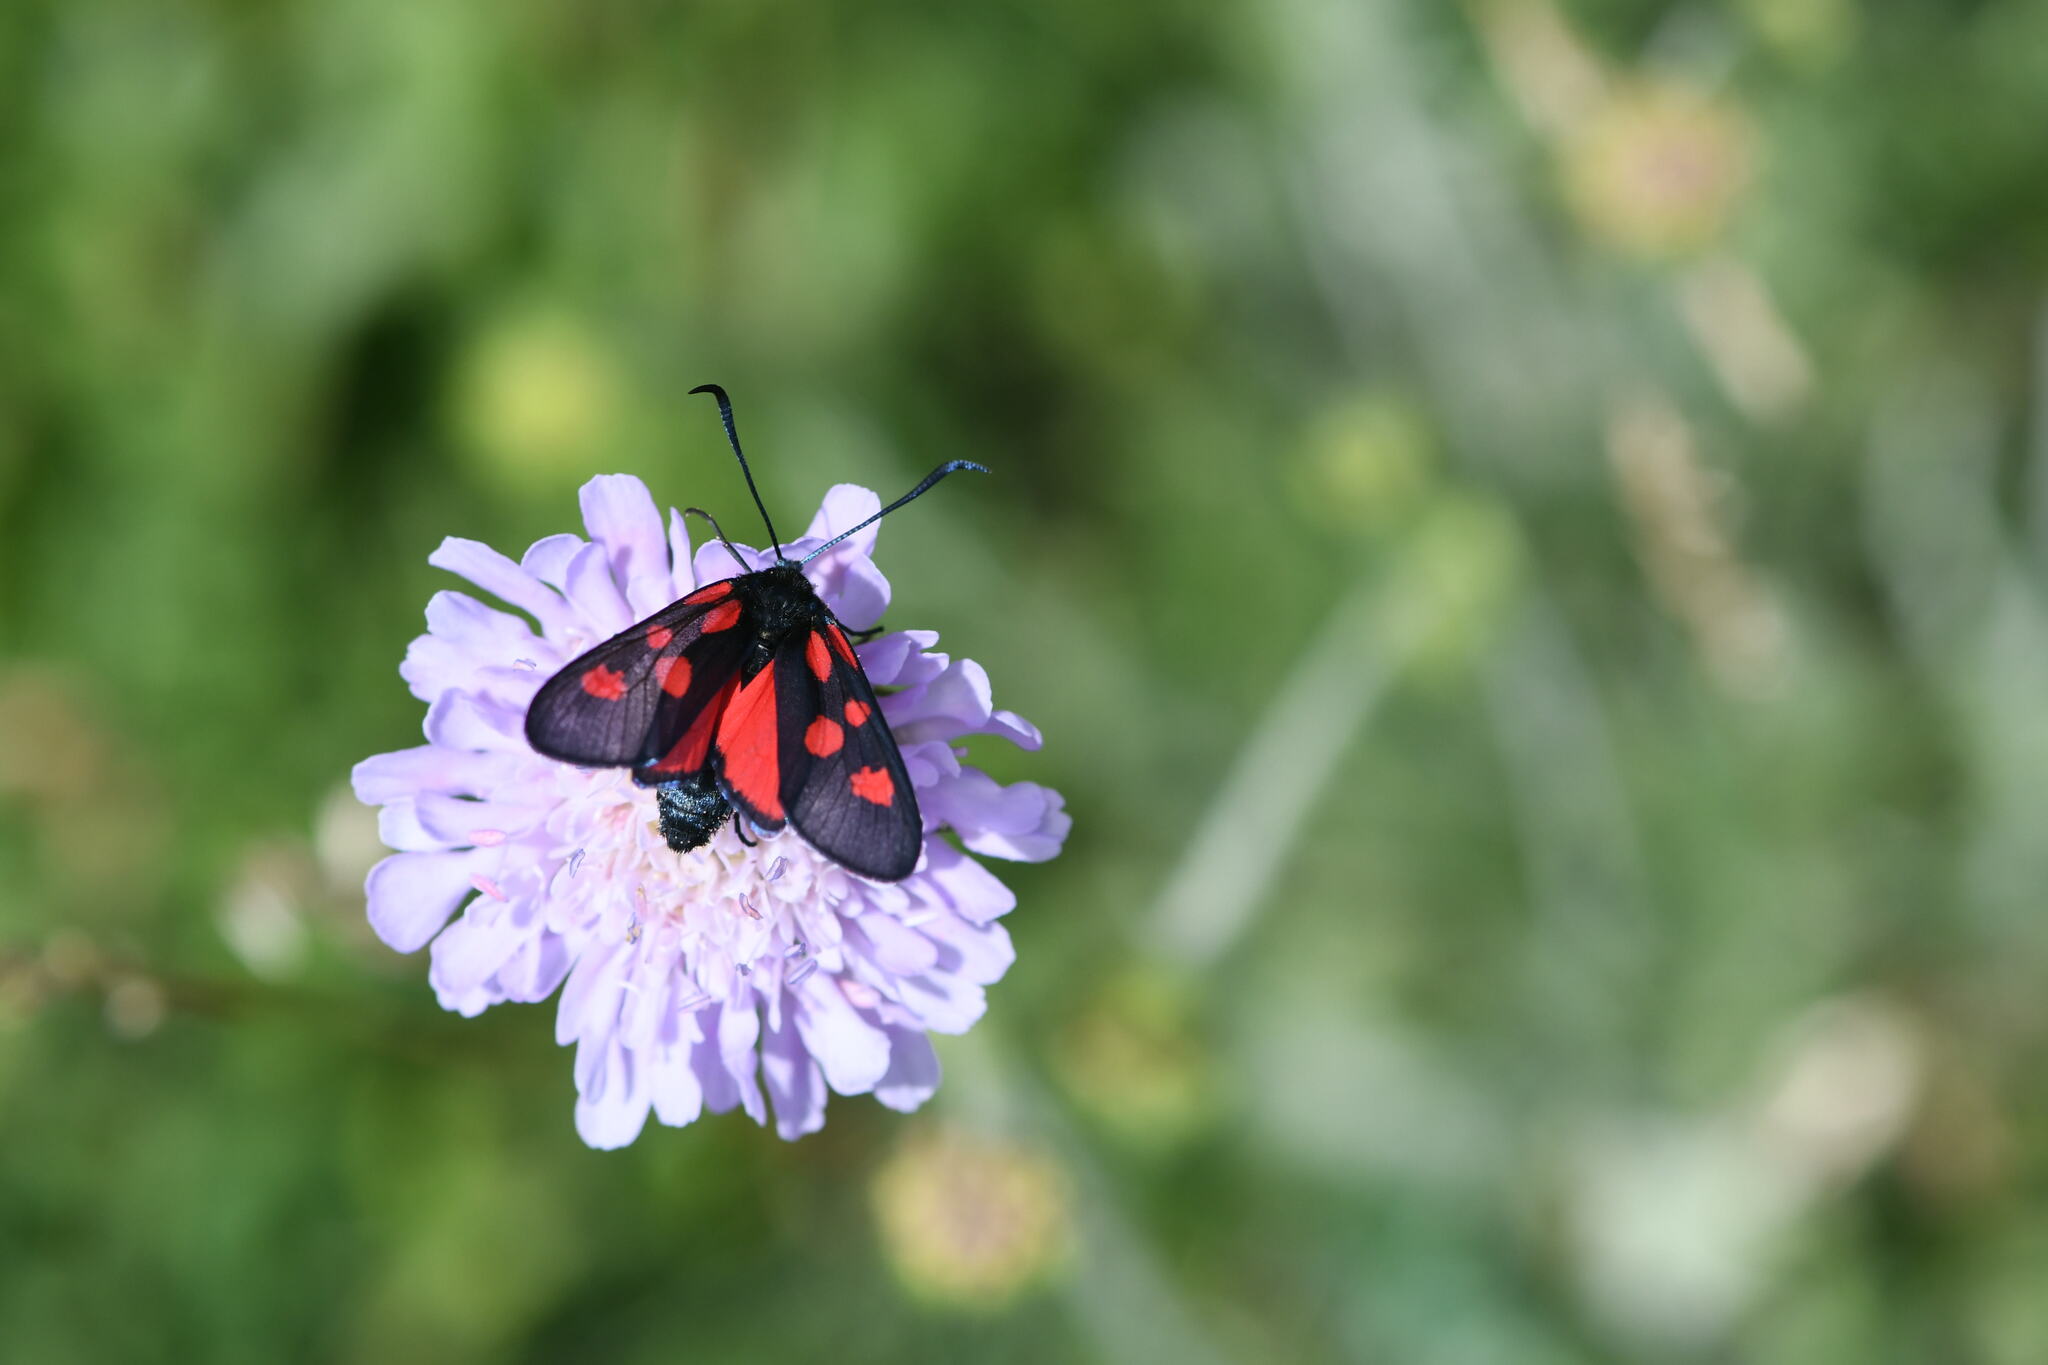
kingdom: Animalia
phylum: Arthropoda
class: Insecta
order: Lepidoptera
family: Zygaenidae
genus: Zygaena
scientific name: Zygaena lonicerae
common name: Narrow-bordered five-spot burnet
